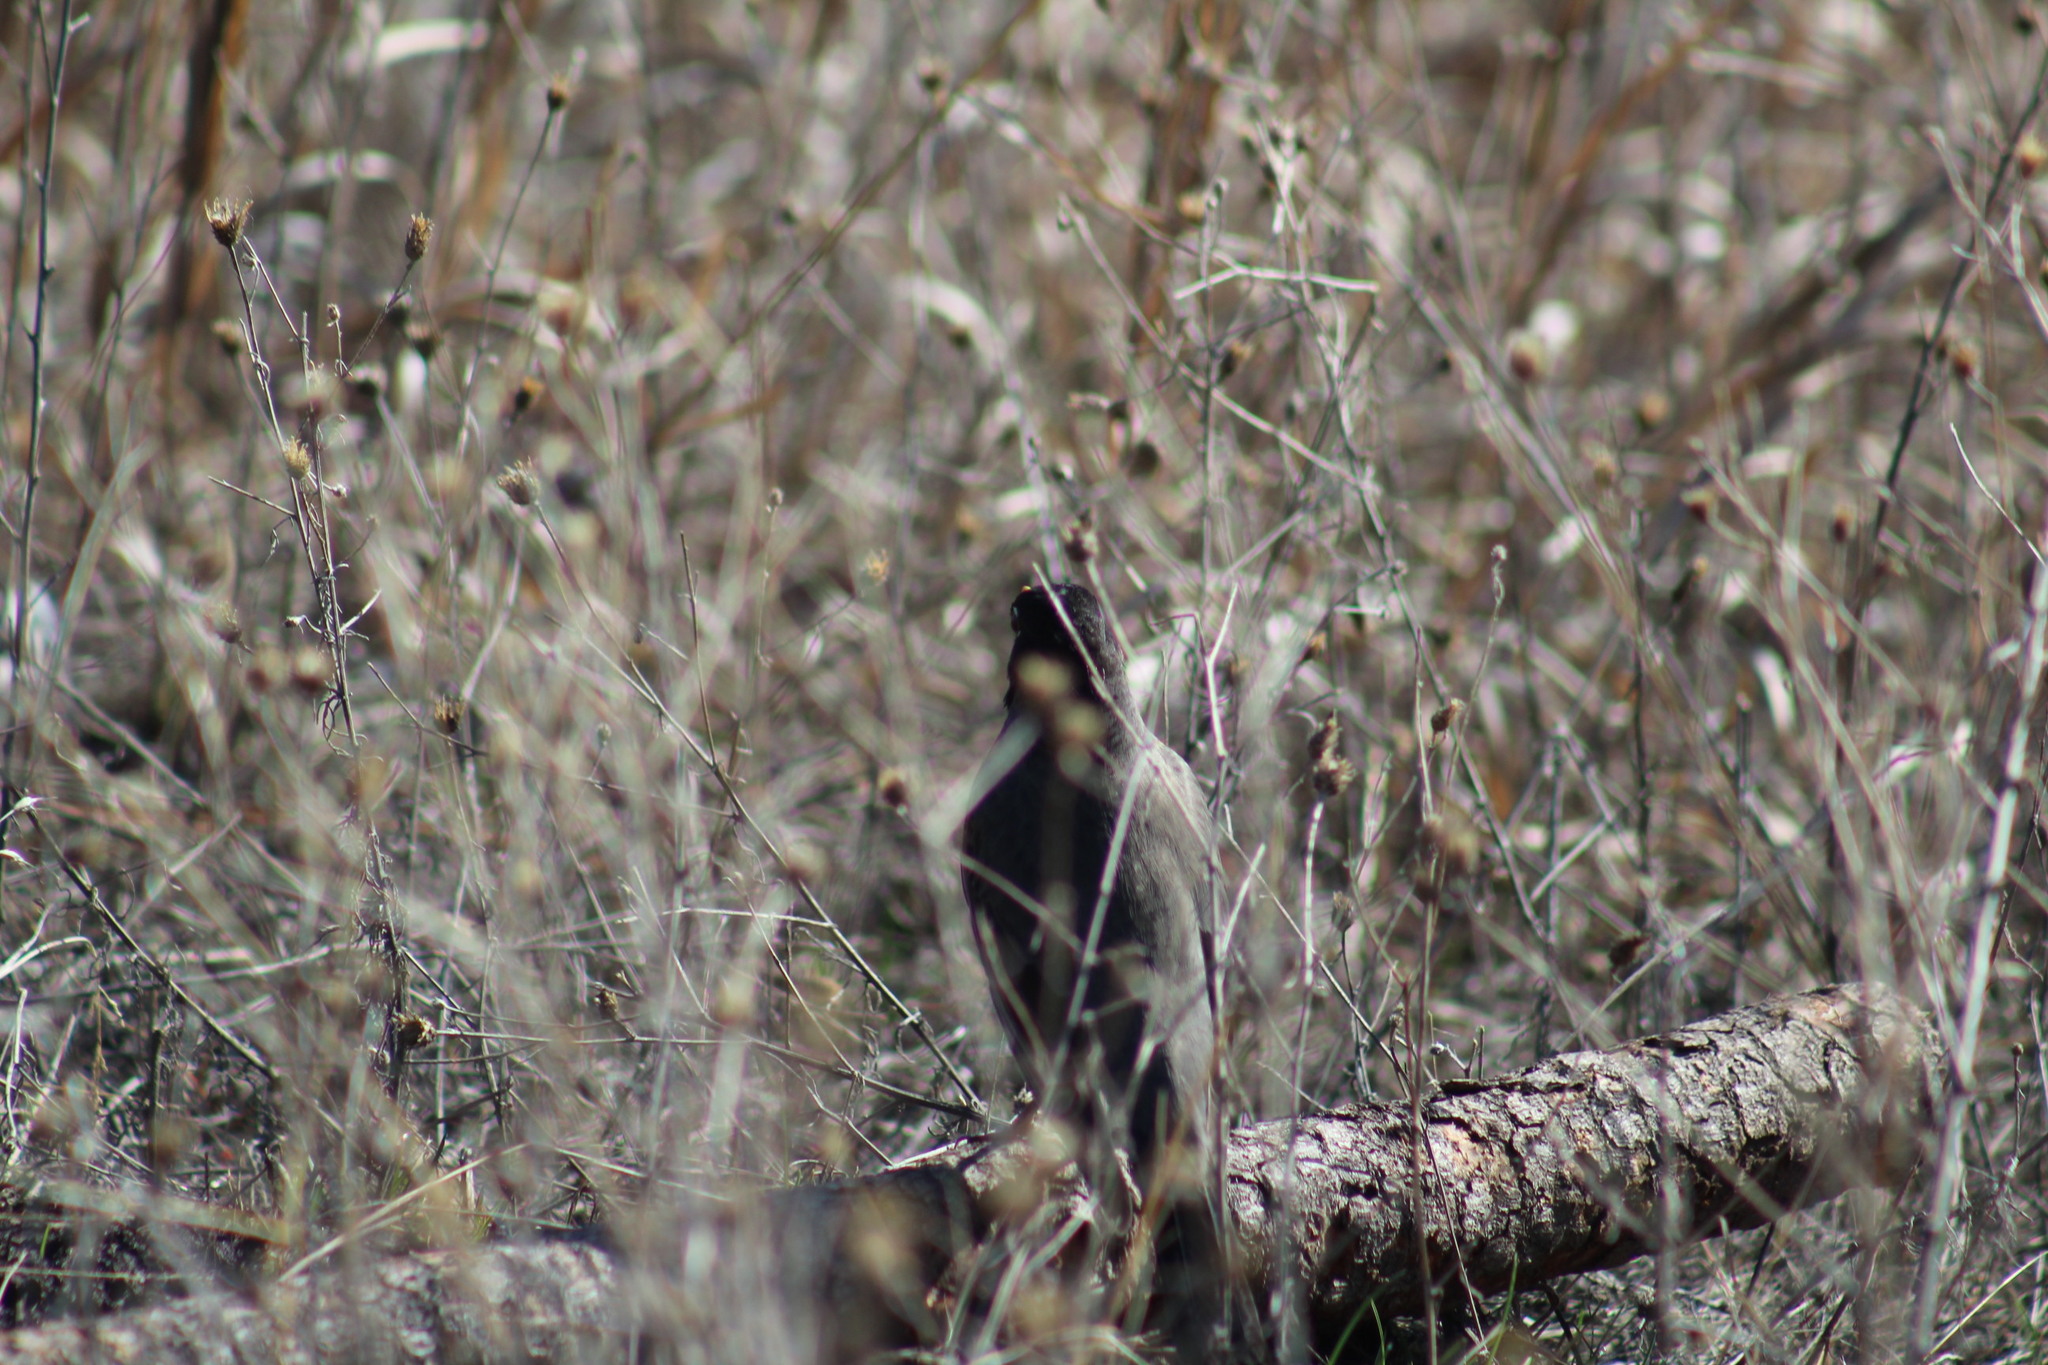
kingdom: Animalia
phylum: Chordata
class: Aves
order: Passeriformes
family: Turdidae
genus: Turdus
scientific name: Turdus migratorius
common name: American robin
